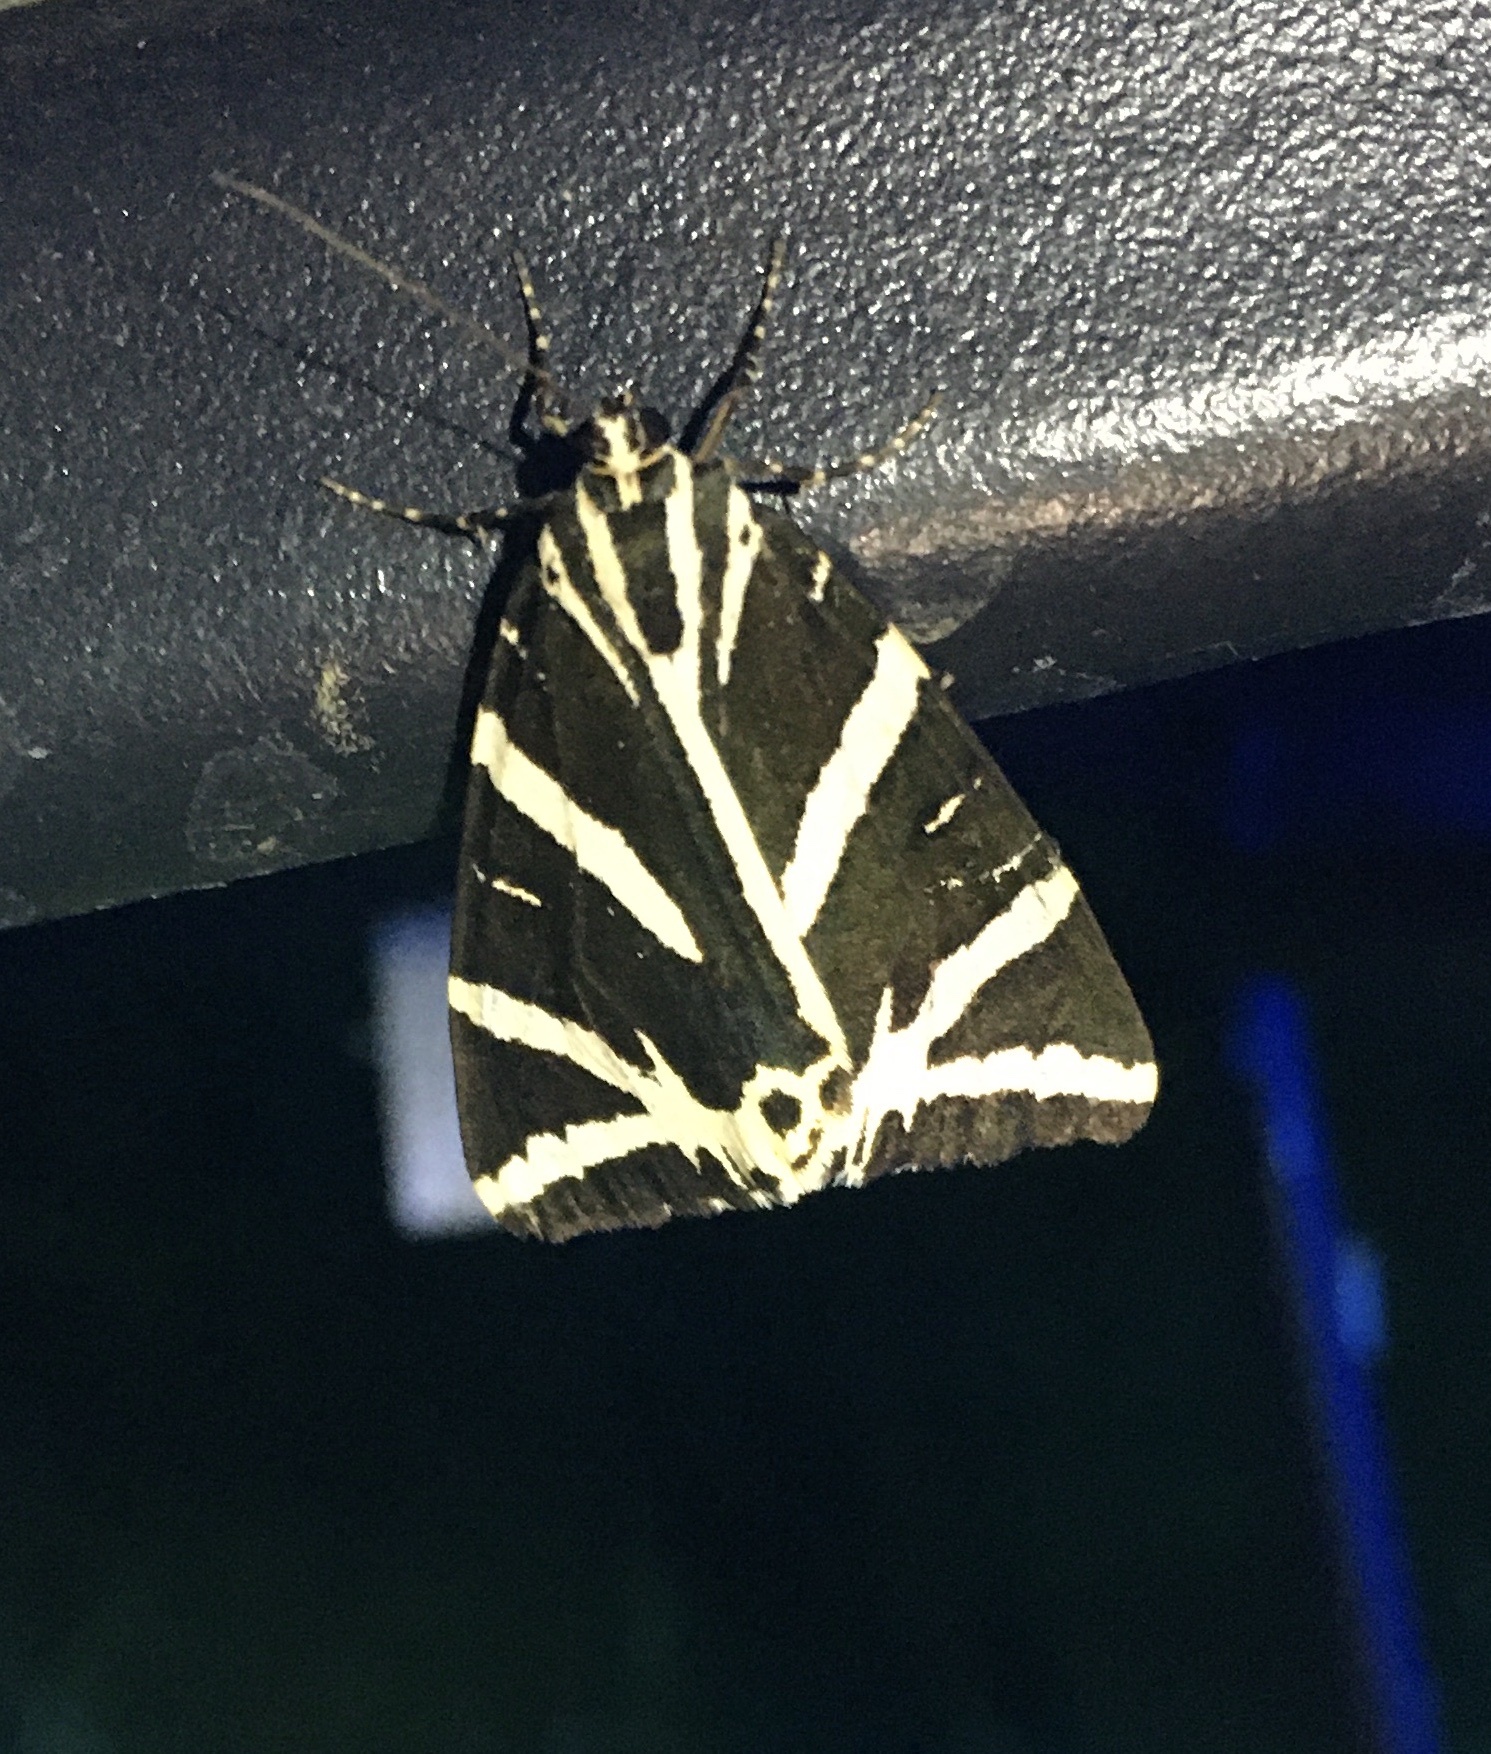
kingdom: Animalia
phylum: Arthropoda
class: Insecta
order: Lepidoptera
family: Erebidae
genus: Euplagia
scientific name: Euplagia quadripunctaria
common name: Jersey tiger
